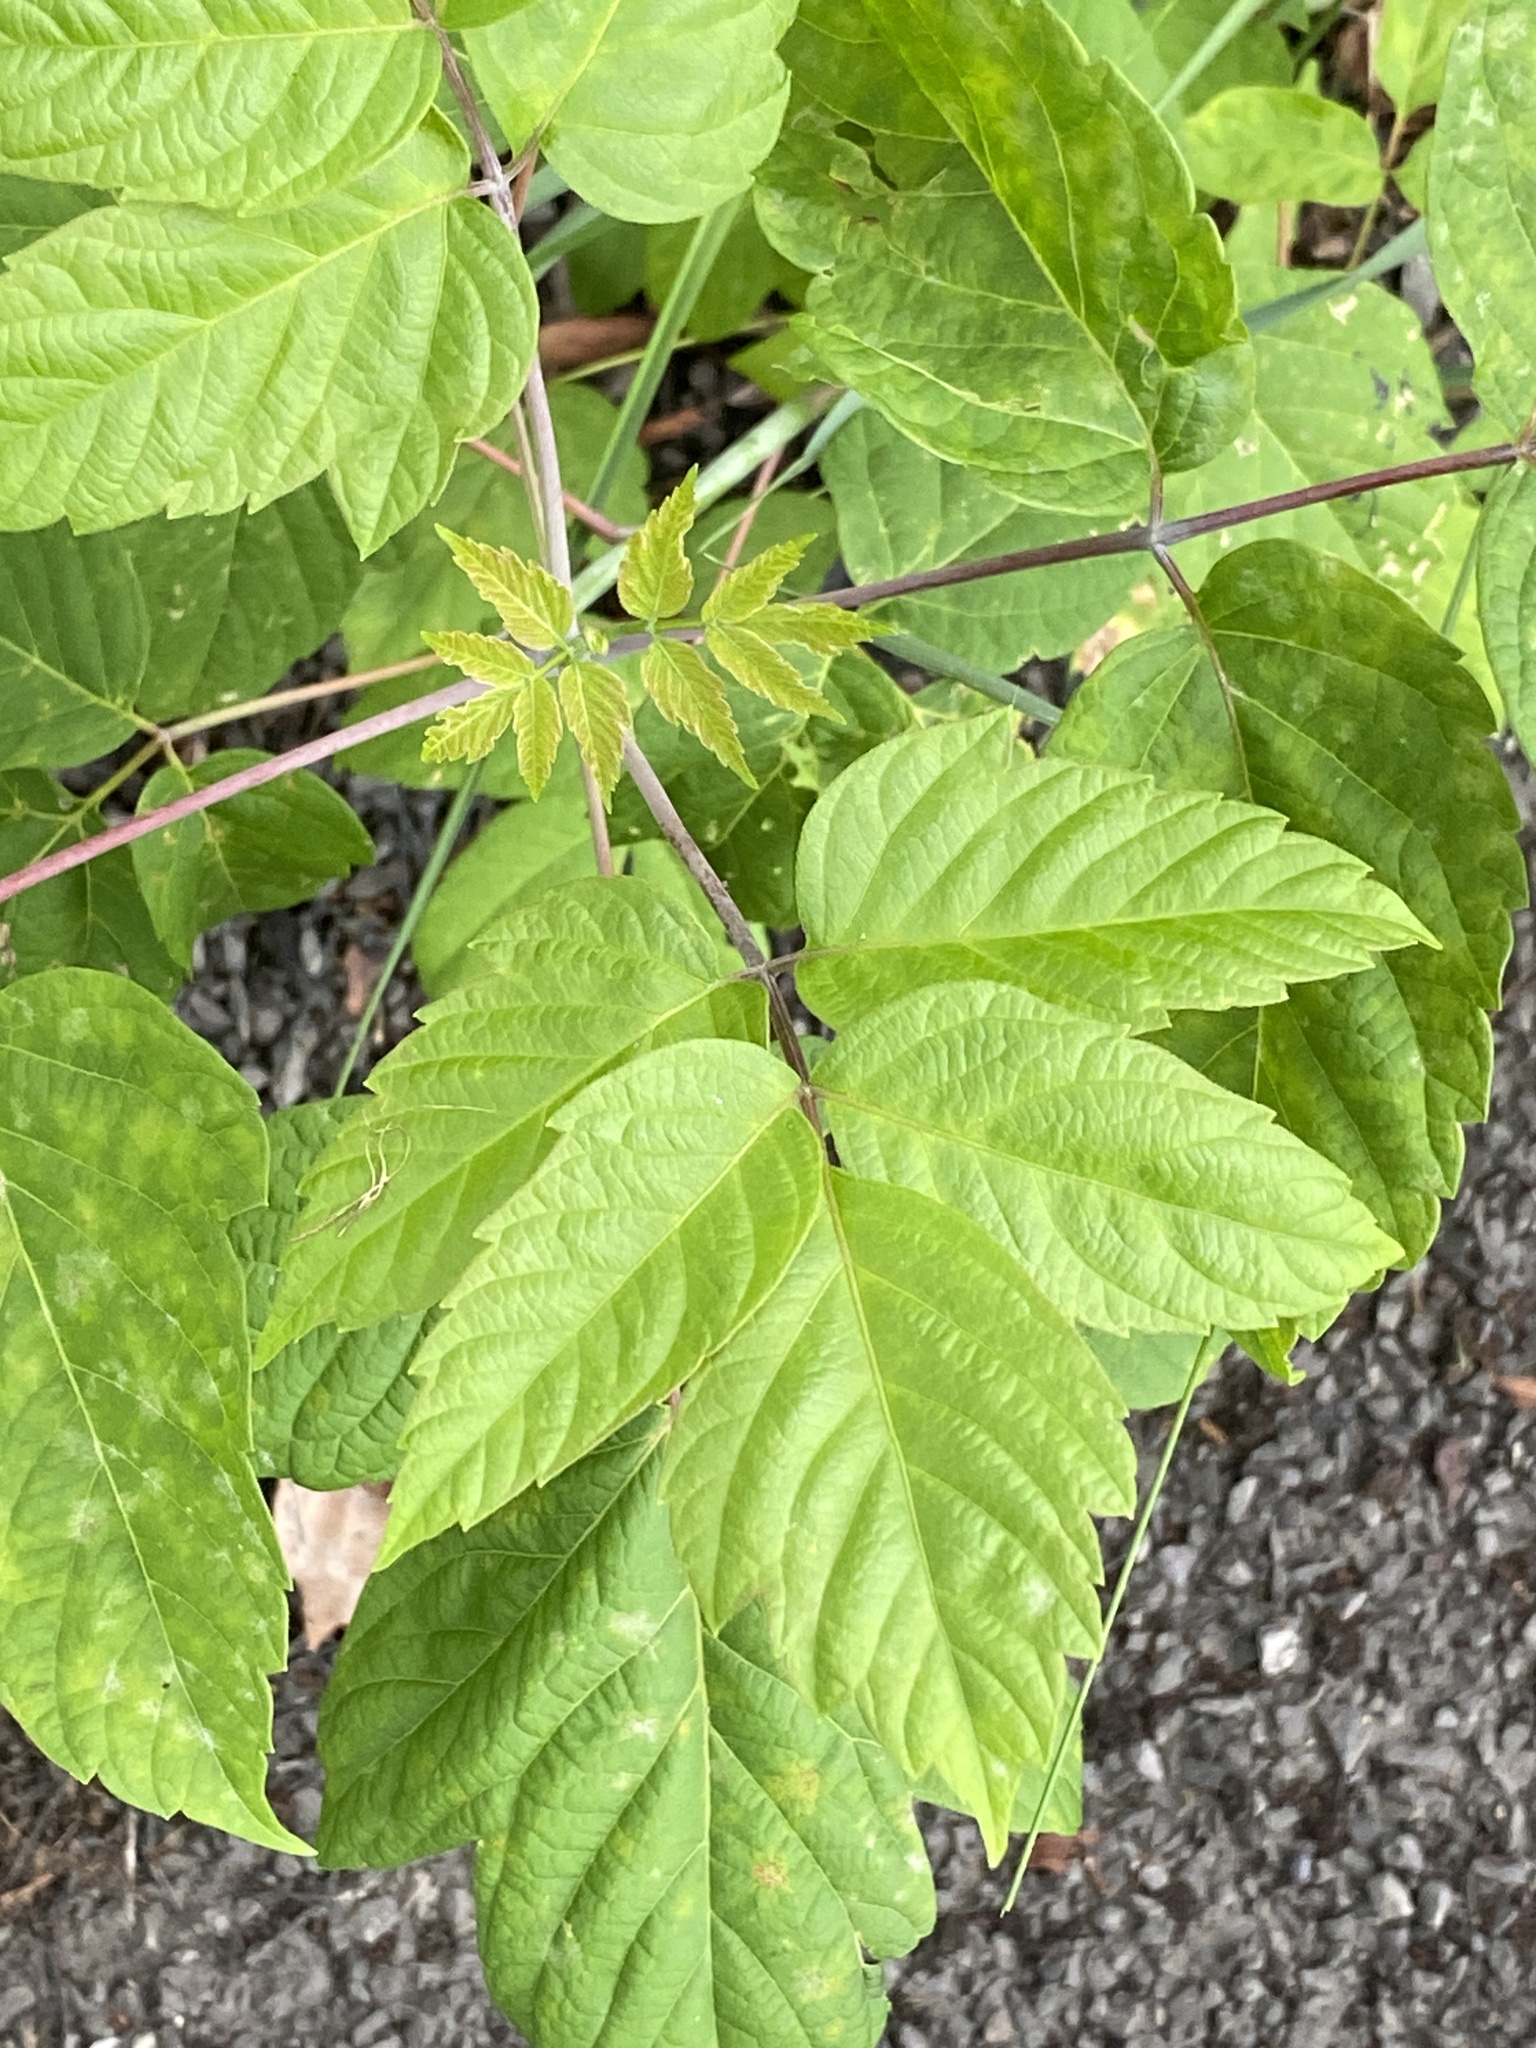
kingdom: Plantae
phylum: Tracheophyta
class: Magnoliopsida
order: Sapindales
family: Sapindaceae
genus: Acer
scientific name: Acer negundo
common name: Ashleaf maple
